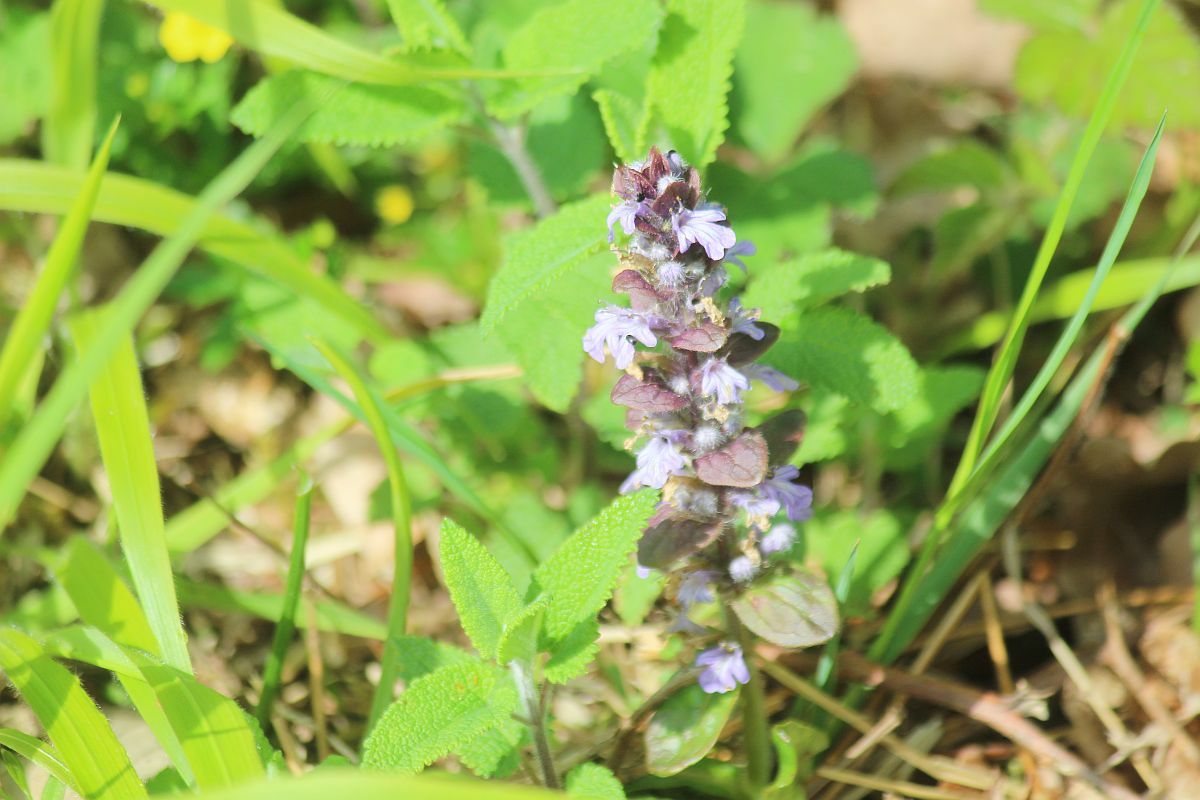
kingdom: Plantae
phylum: Tracheophyta
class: Magnoliopsida
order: Lamiales
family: Lamiaceae
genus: Ajuga
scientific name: Ajuga reptans
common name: Bugle
